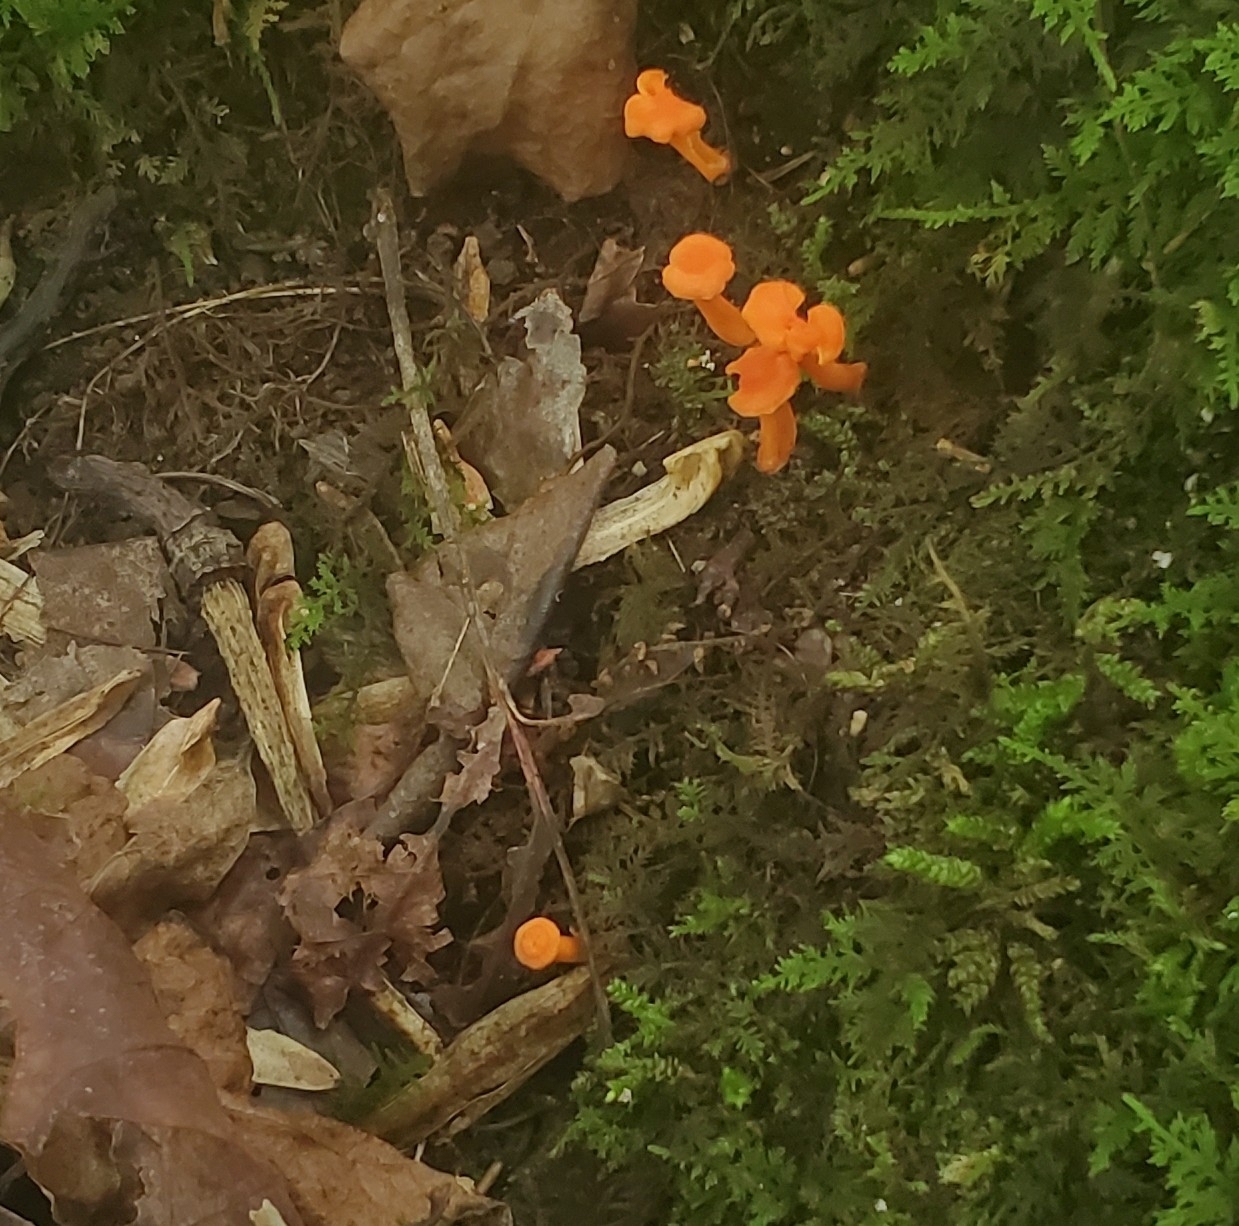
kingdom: Fungi
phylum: Basidiomycota
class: Agaricomycetes
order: Cantharellales
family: Hydnaceae
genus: Cantharellus
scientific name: Cantharellus cinnabarinus
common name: Cinnabar chanterelle
